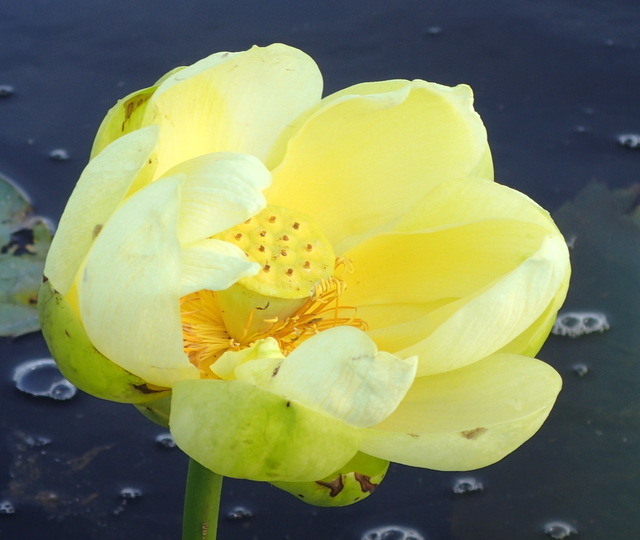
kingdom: Plantae
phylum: Tracheophyta
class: Magnoliopsida
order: Proteales
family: Nelumbonaceae
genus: Nelumbo
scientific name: Nelumbo lutea
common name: American lotus
